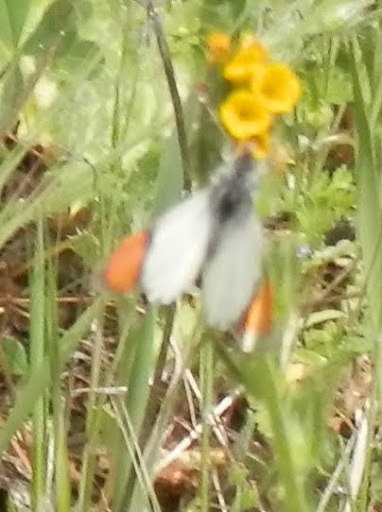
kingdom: Animalia
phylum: Arthropoda
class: Insecta
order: Lepidoptera
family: Pieridae
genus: Anthocharis
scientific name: Anthocharis sara
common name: Sara's orangetip
